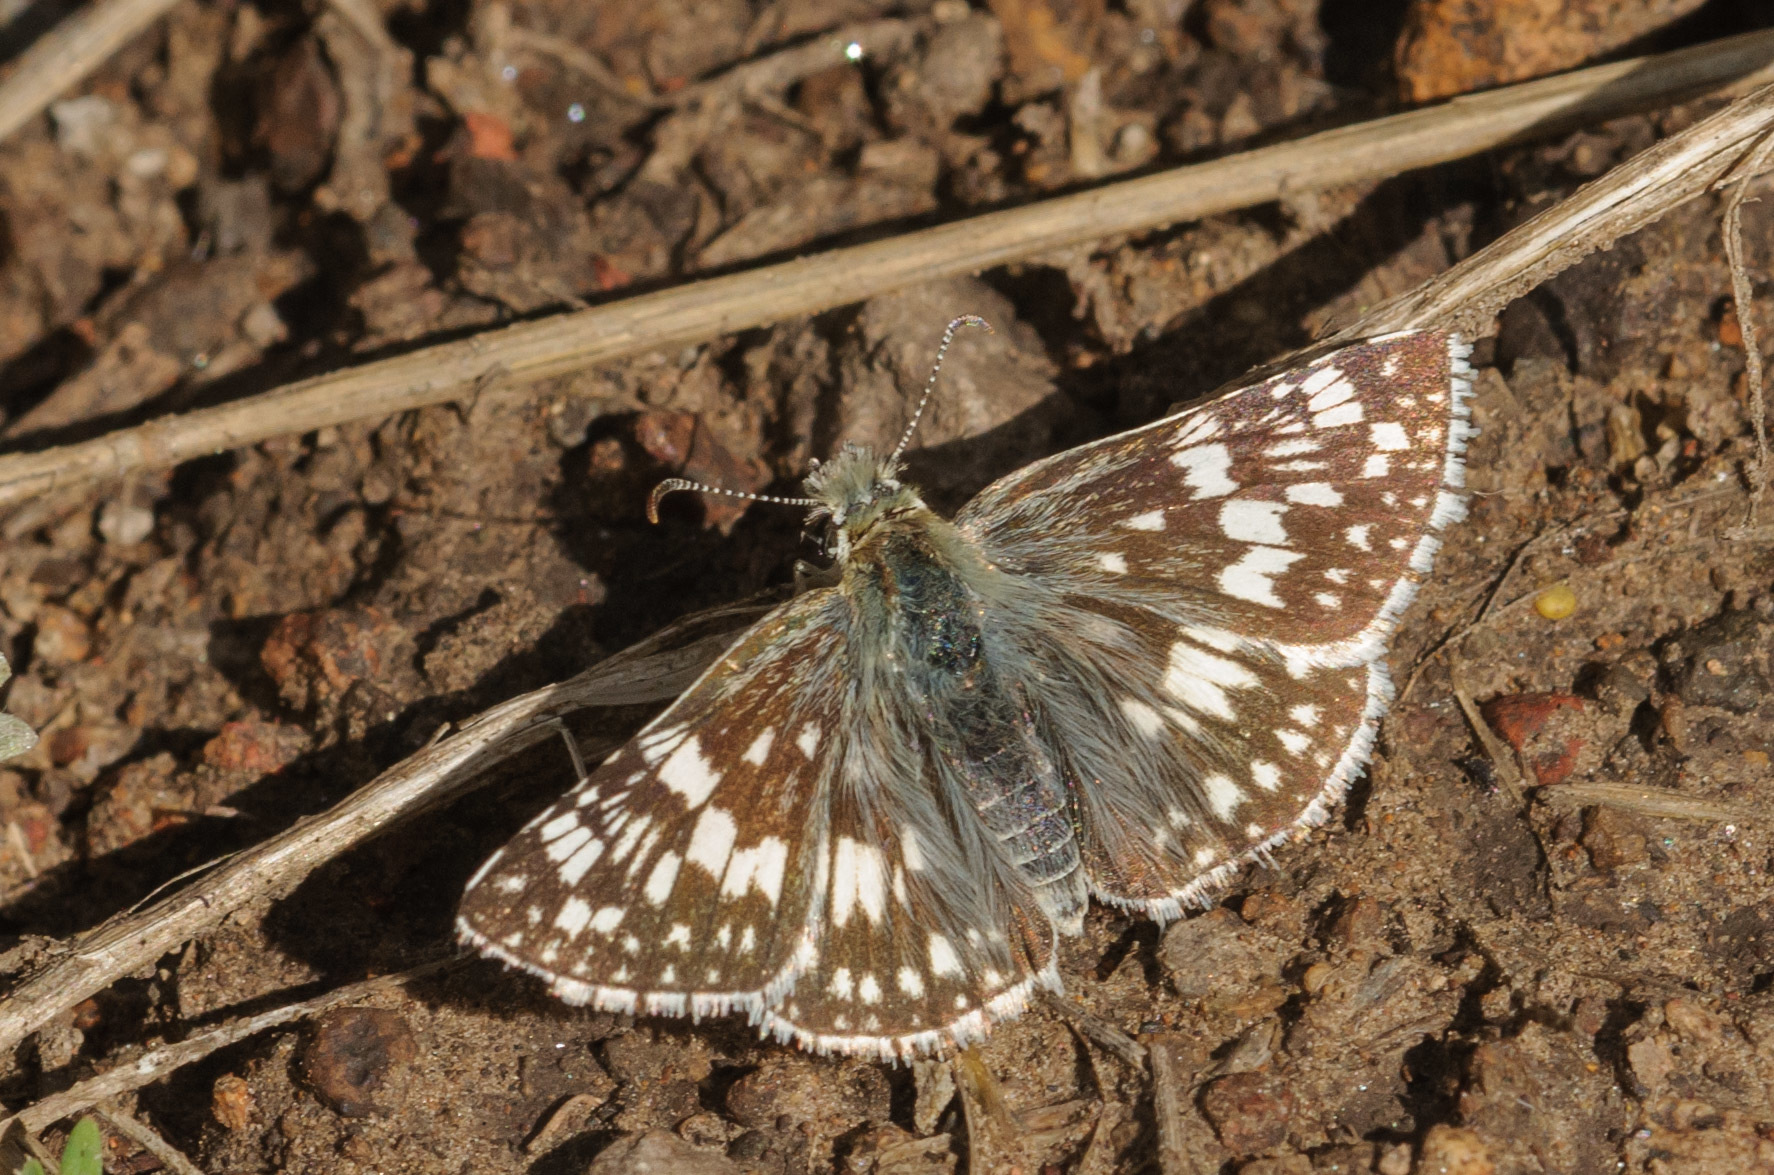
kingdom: Animalia
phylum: Arthropoda
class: Insecta
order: Lepidoptera
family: Hesperiidae
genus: Burnsius
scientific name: Burnsius communis
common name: Common checkered-skipper
